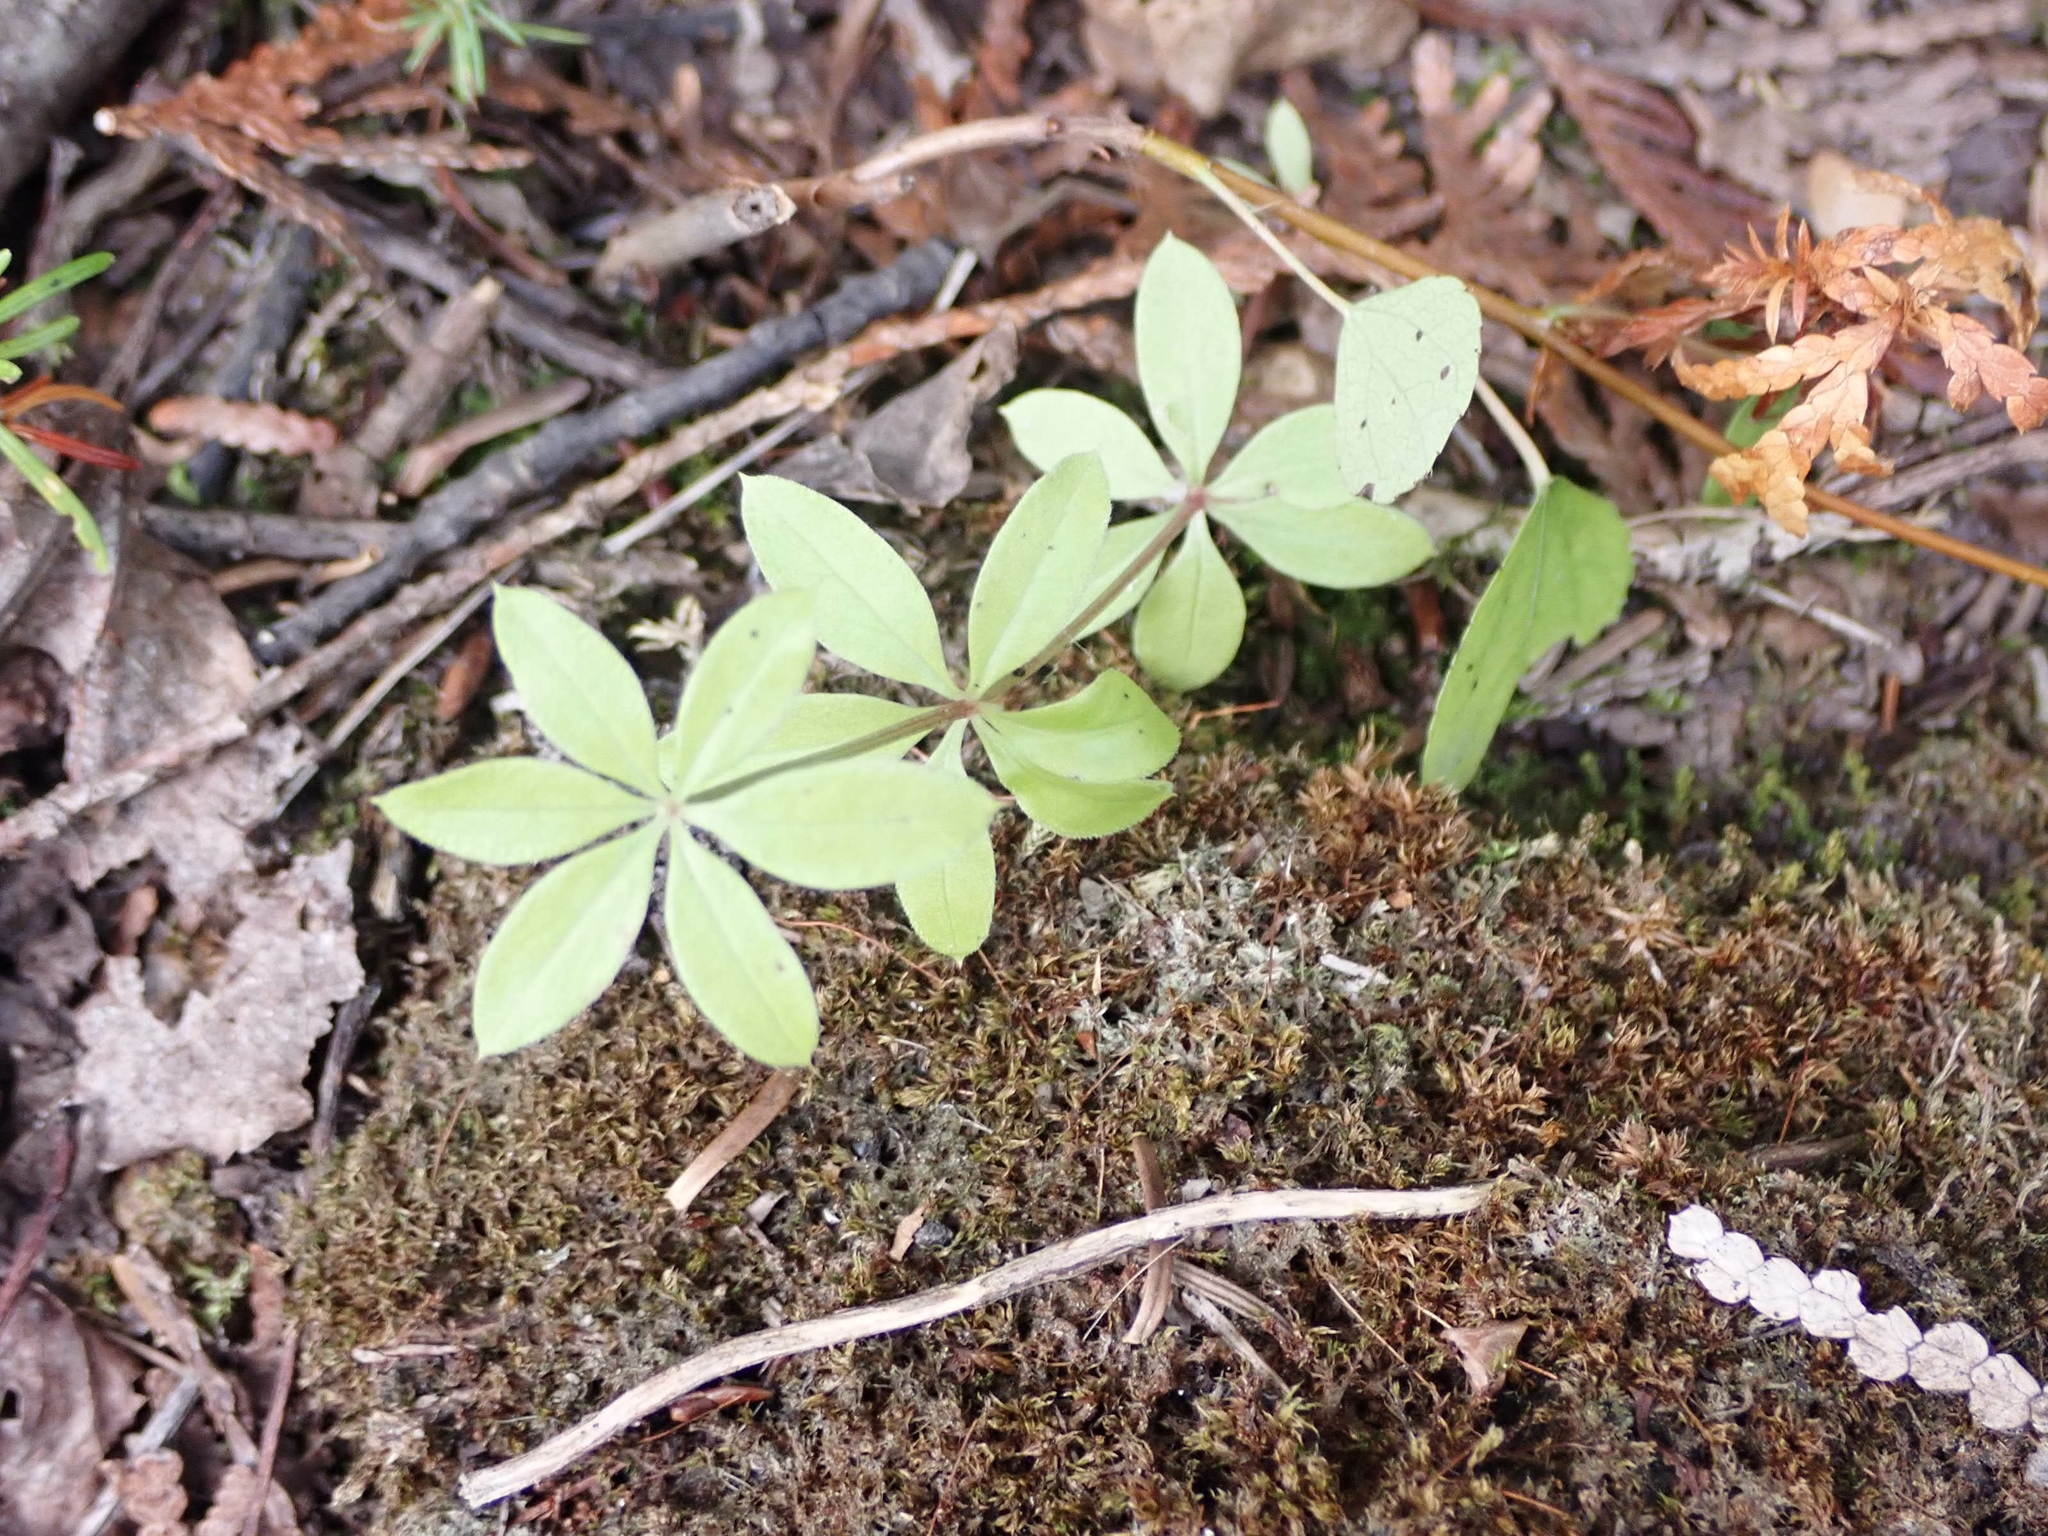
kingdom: Plantae
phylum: Tracheophyta
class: Magnoliopsida
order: Gentianales
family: Rubiaceae
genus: Galium
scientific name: Galium triflorum
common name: Fragrant bedstraw
